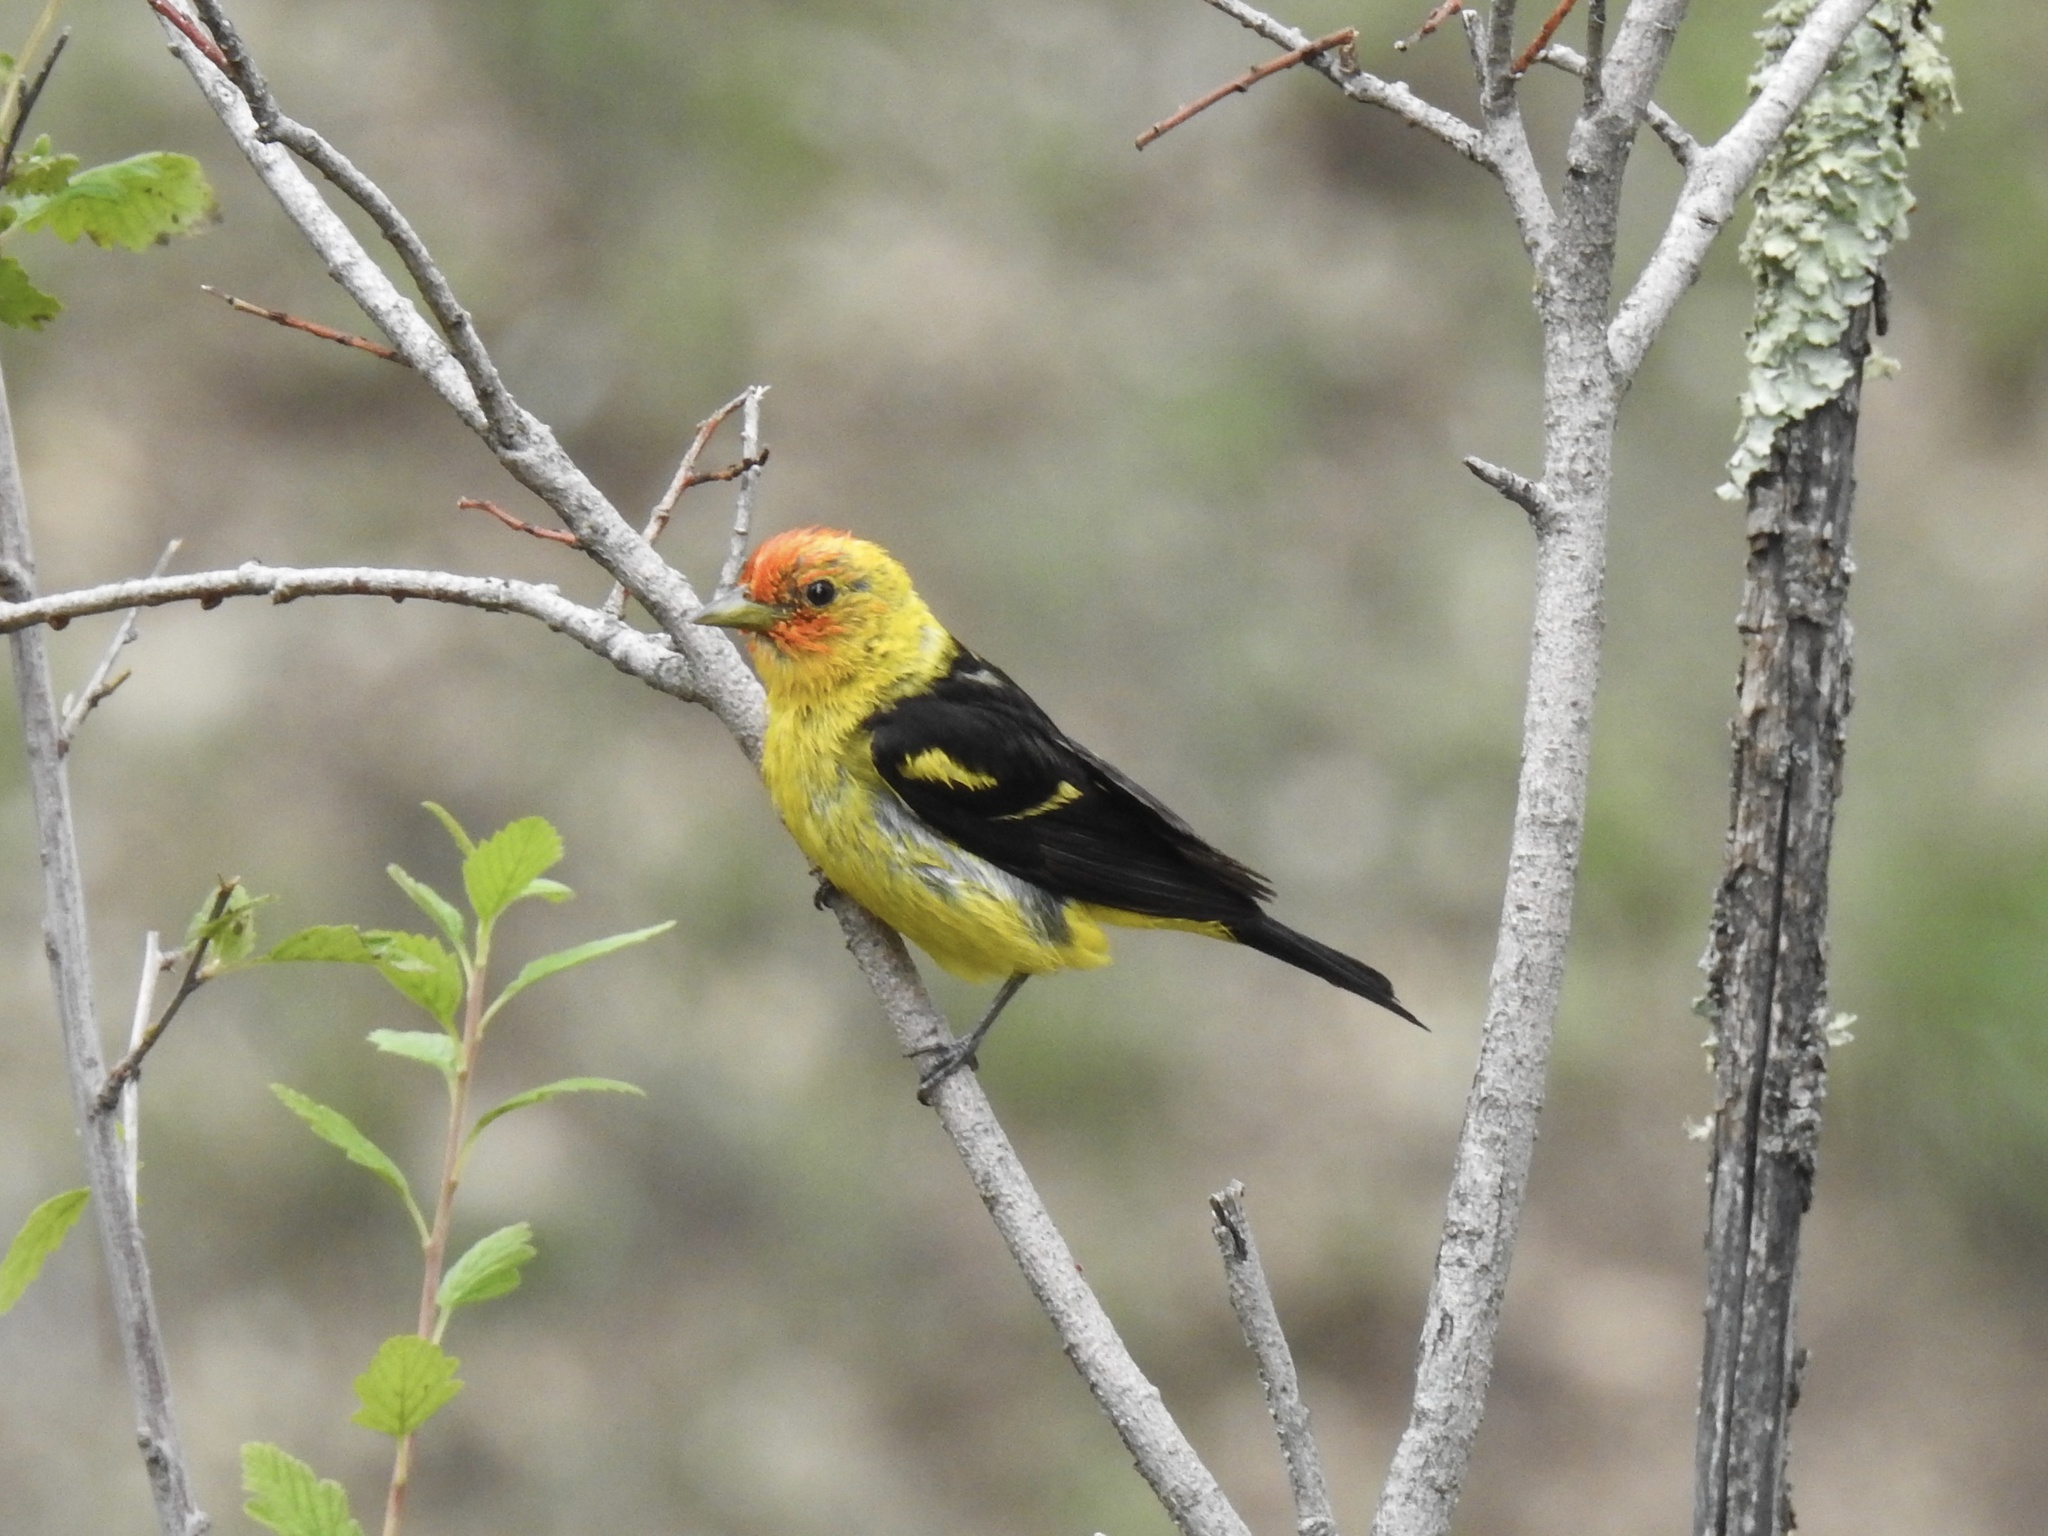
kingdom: Animalia
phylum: Chordata
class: Aves
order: Passeriformes
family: Cardinalidae
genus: Piranga
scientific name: Piranga ludoviciana
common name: Western tanager
